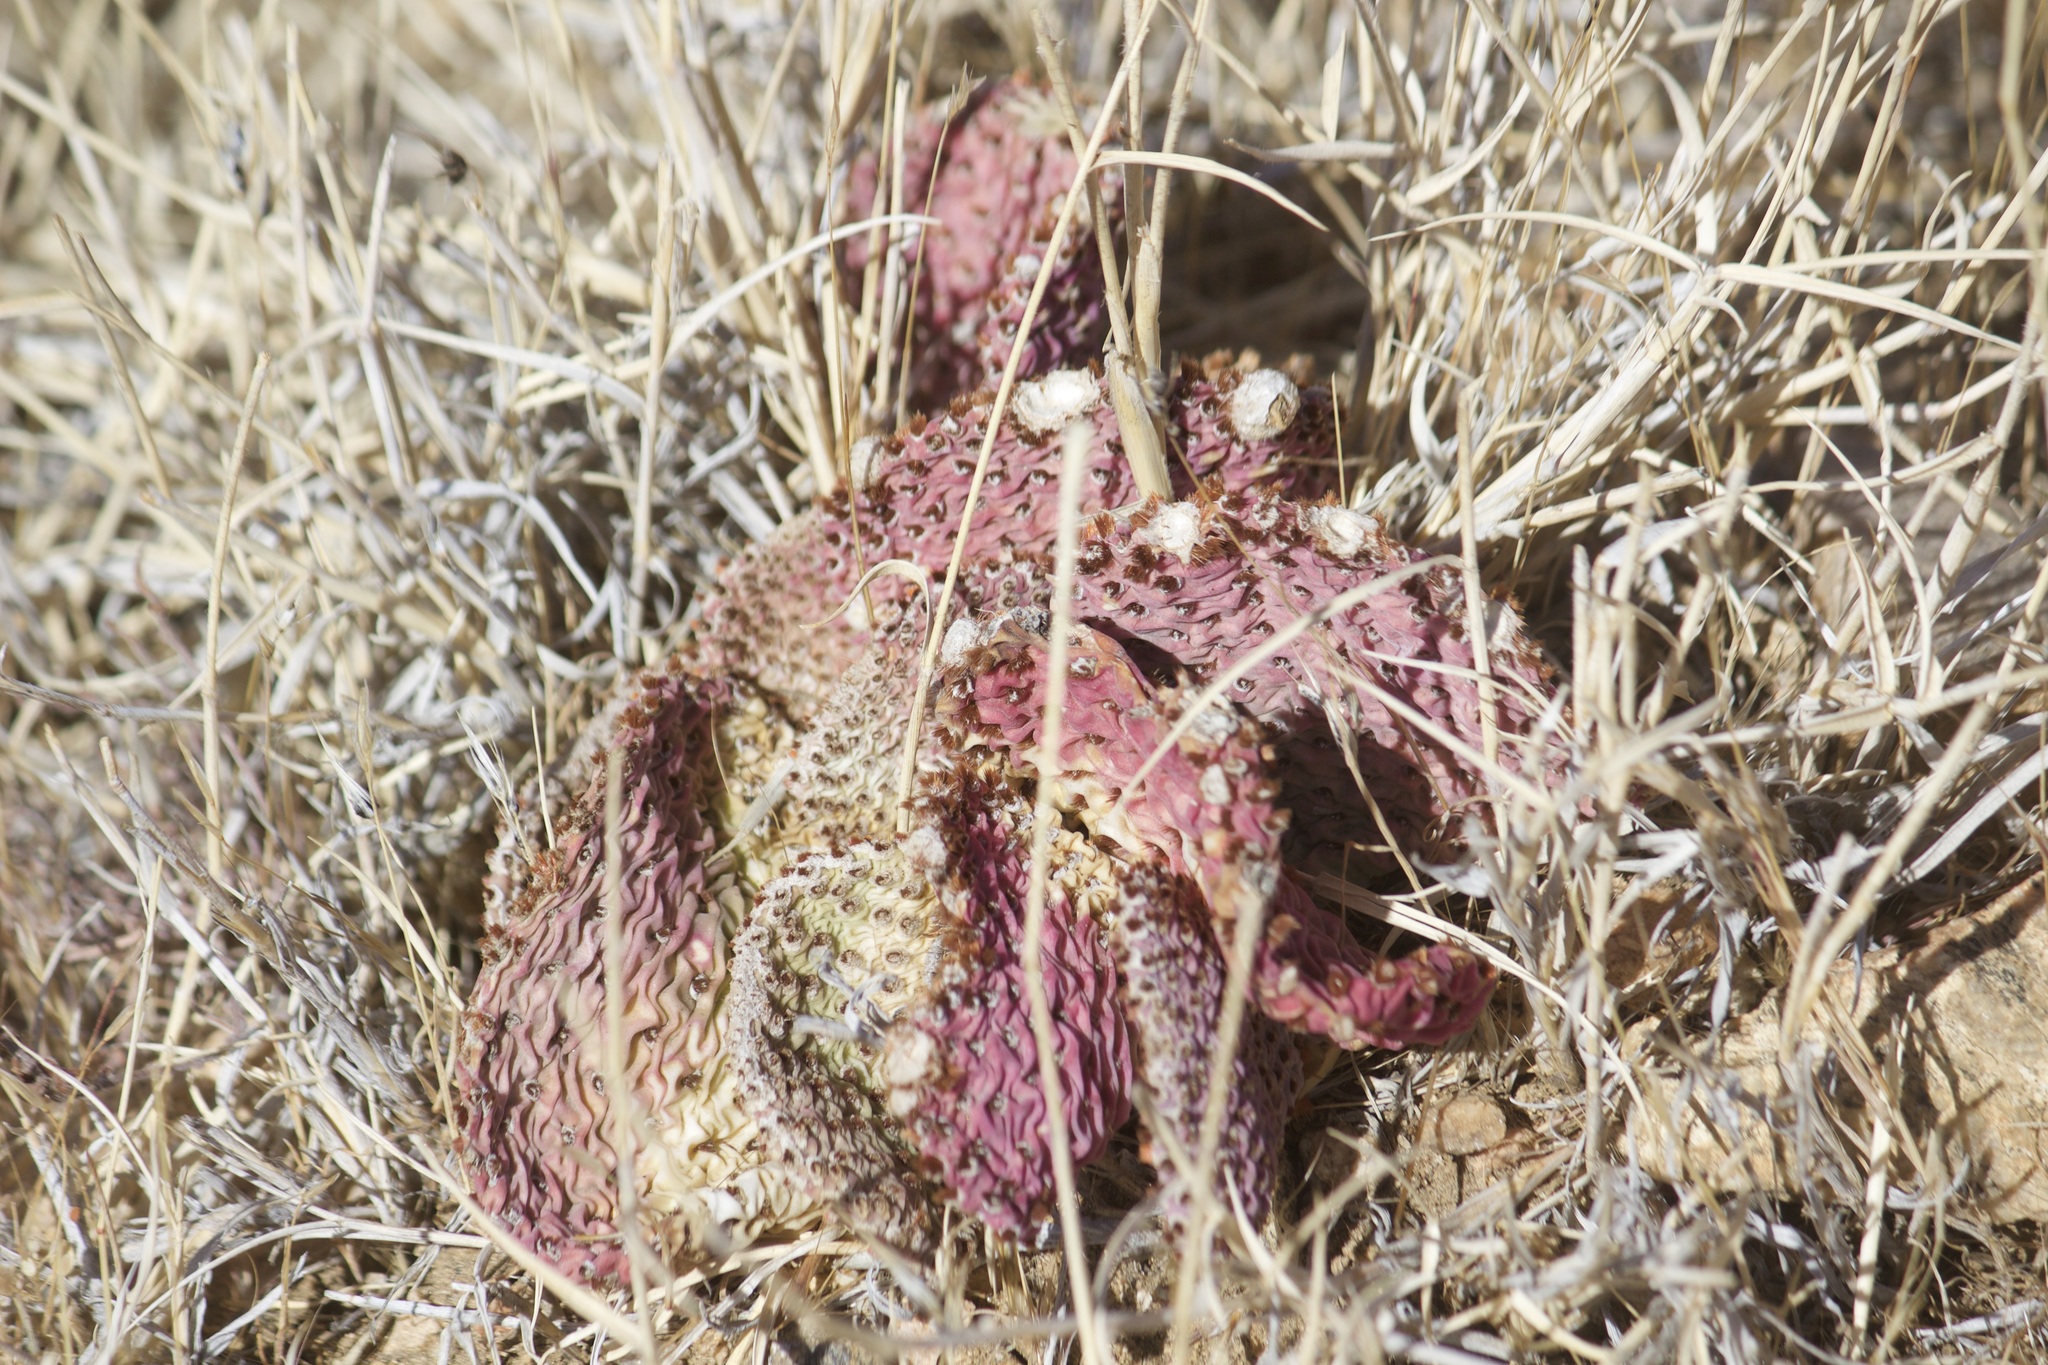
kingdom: Plantae
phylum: Tracheophyta
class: Magnoliopsida
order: Caryophyllales
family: Cactaceae
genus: Opuntia
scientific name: Opuntia basilaris
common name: Beavertail prickly-pear
